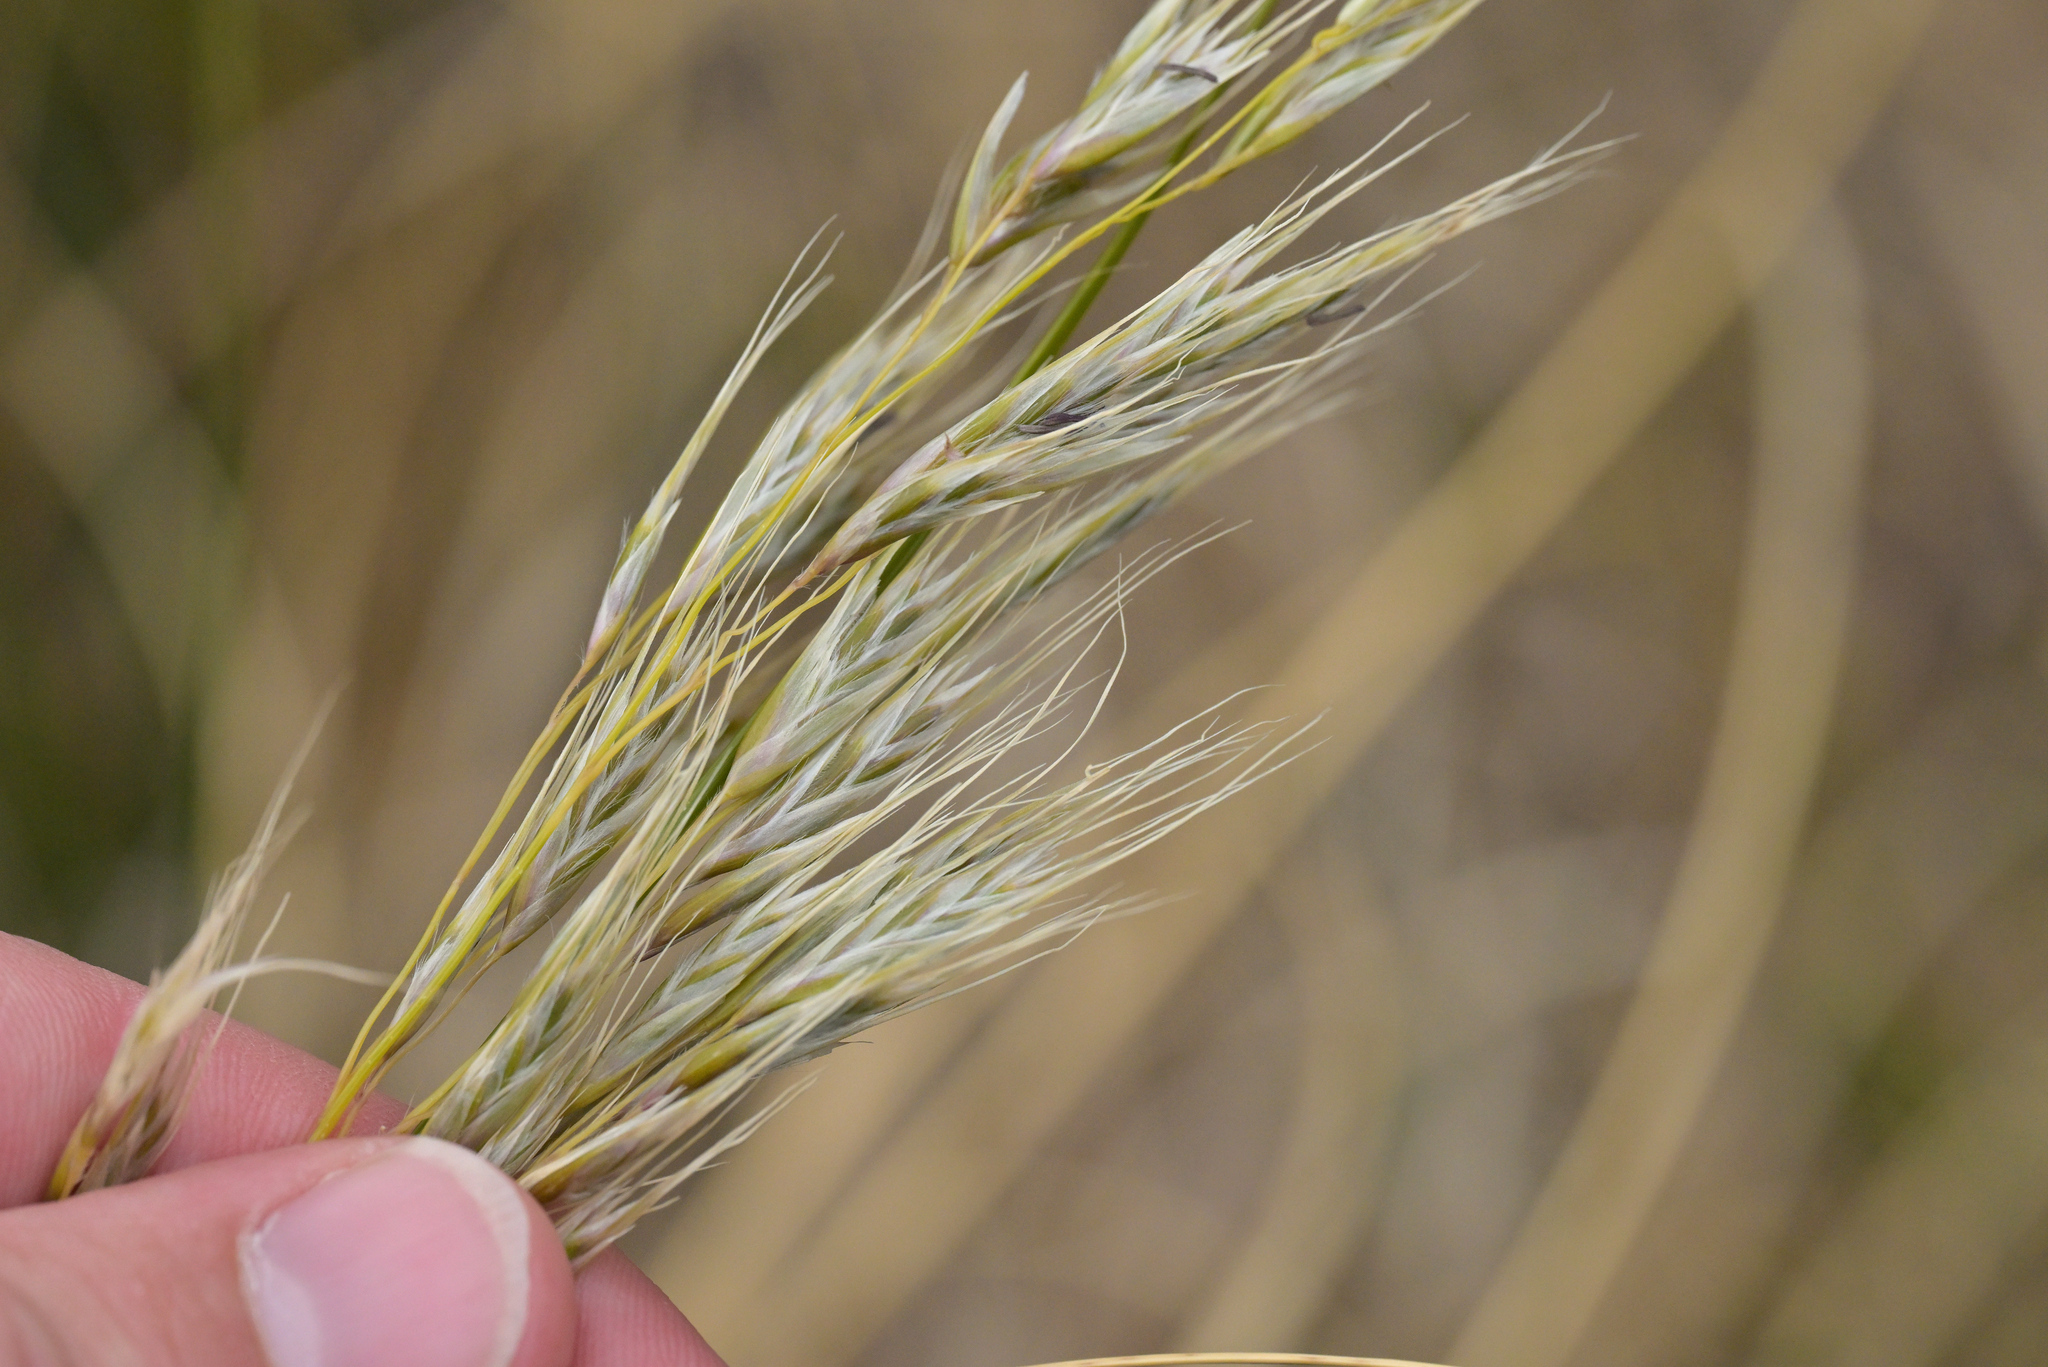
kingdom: Plantae
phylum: Tracheophyta
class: Liliopsida
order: Poales
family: Poaceae
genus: Chionochloa
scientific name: Chionochloa antarctica
